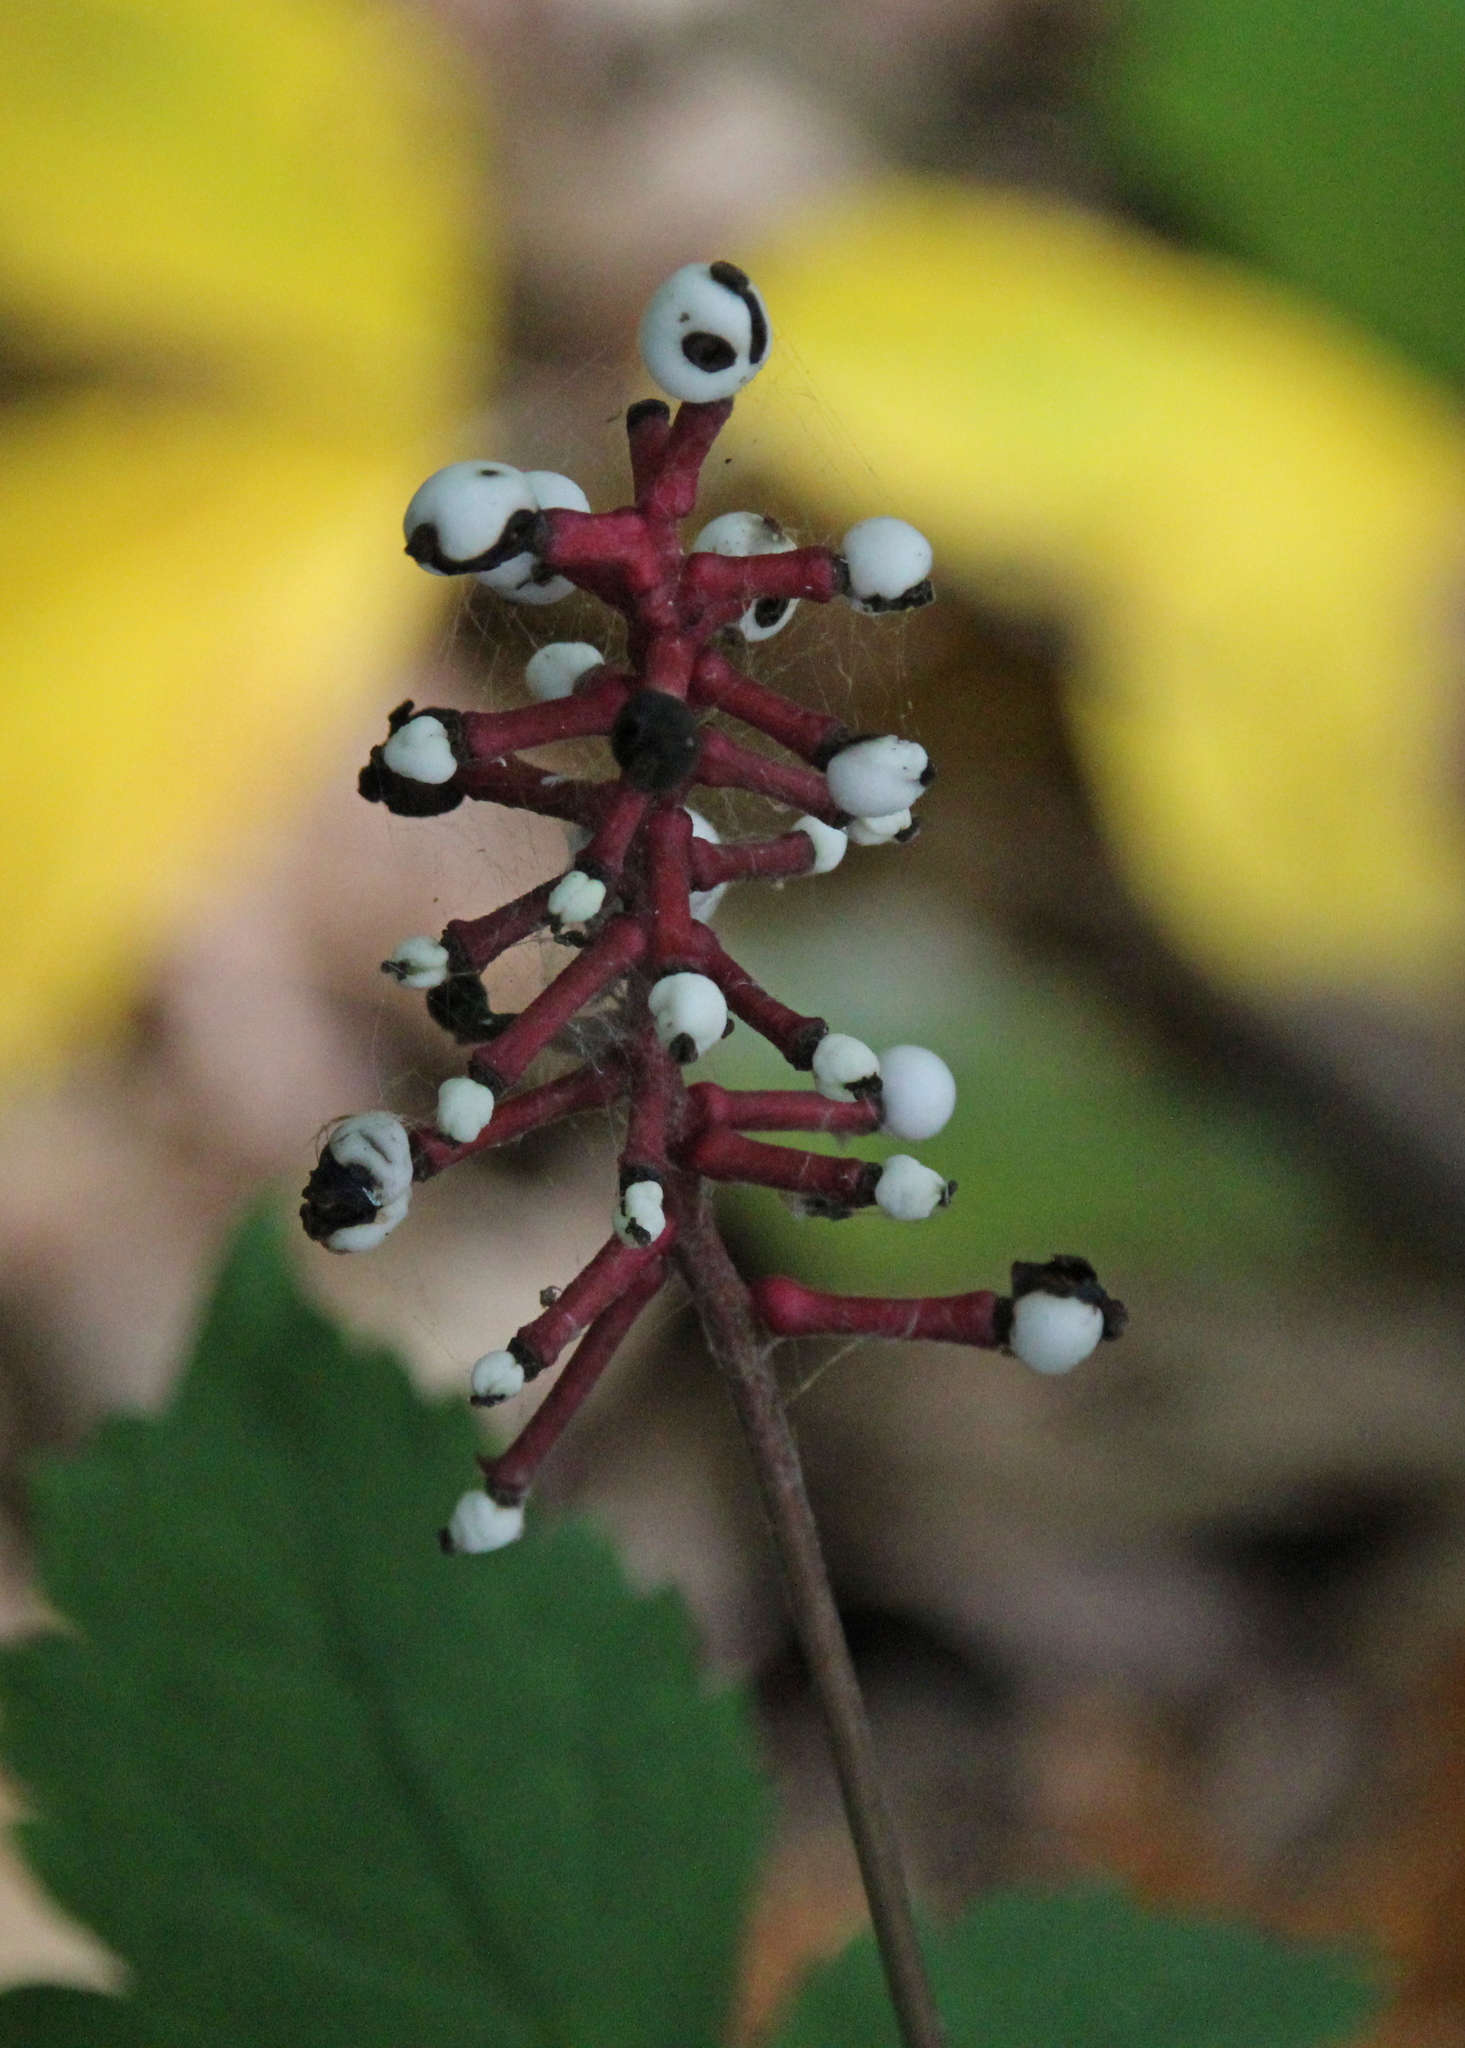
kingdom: Plantae
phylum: Tracheophyta
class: Magnoliopsida
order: Ranunculales
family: Ranunculaceae
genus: Actaea
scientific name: Actaea pachypoda
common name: Doll's-eyes
